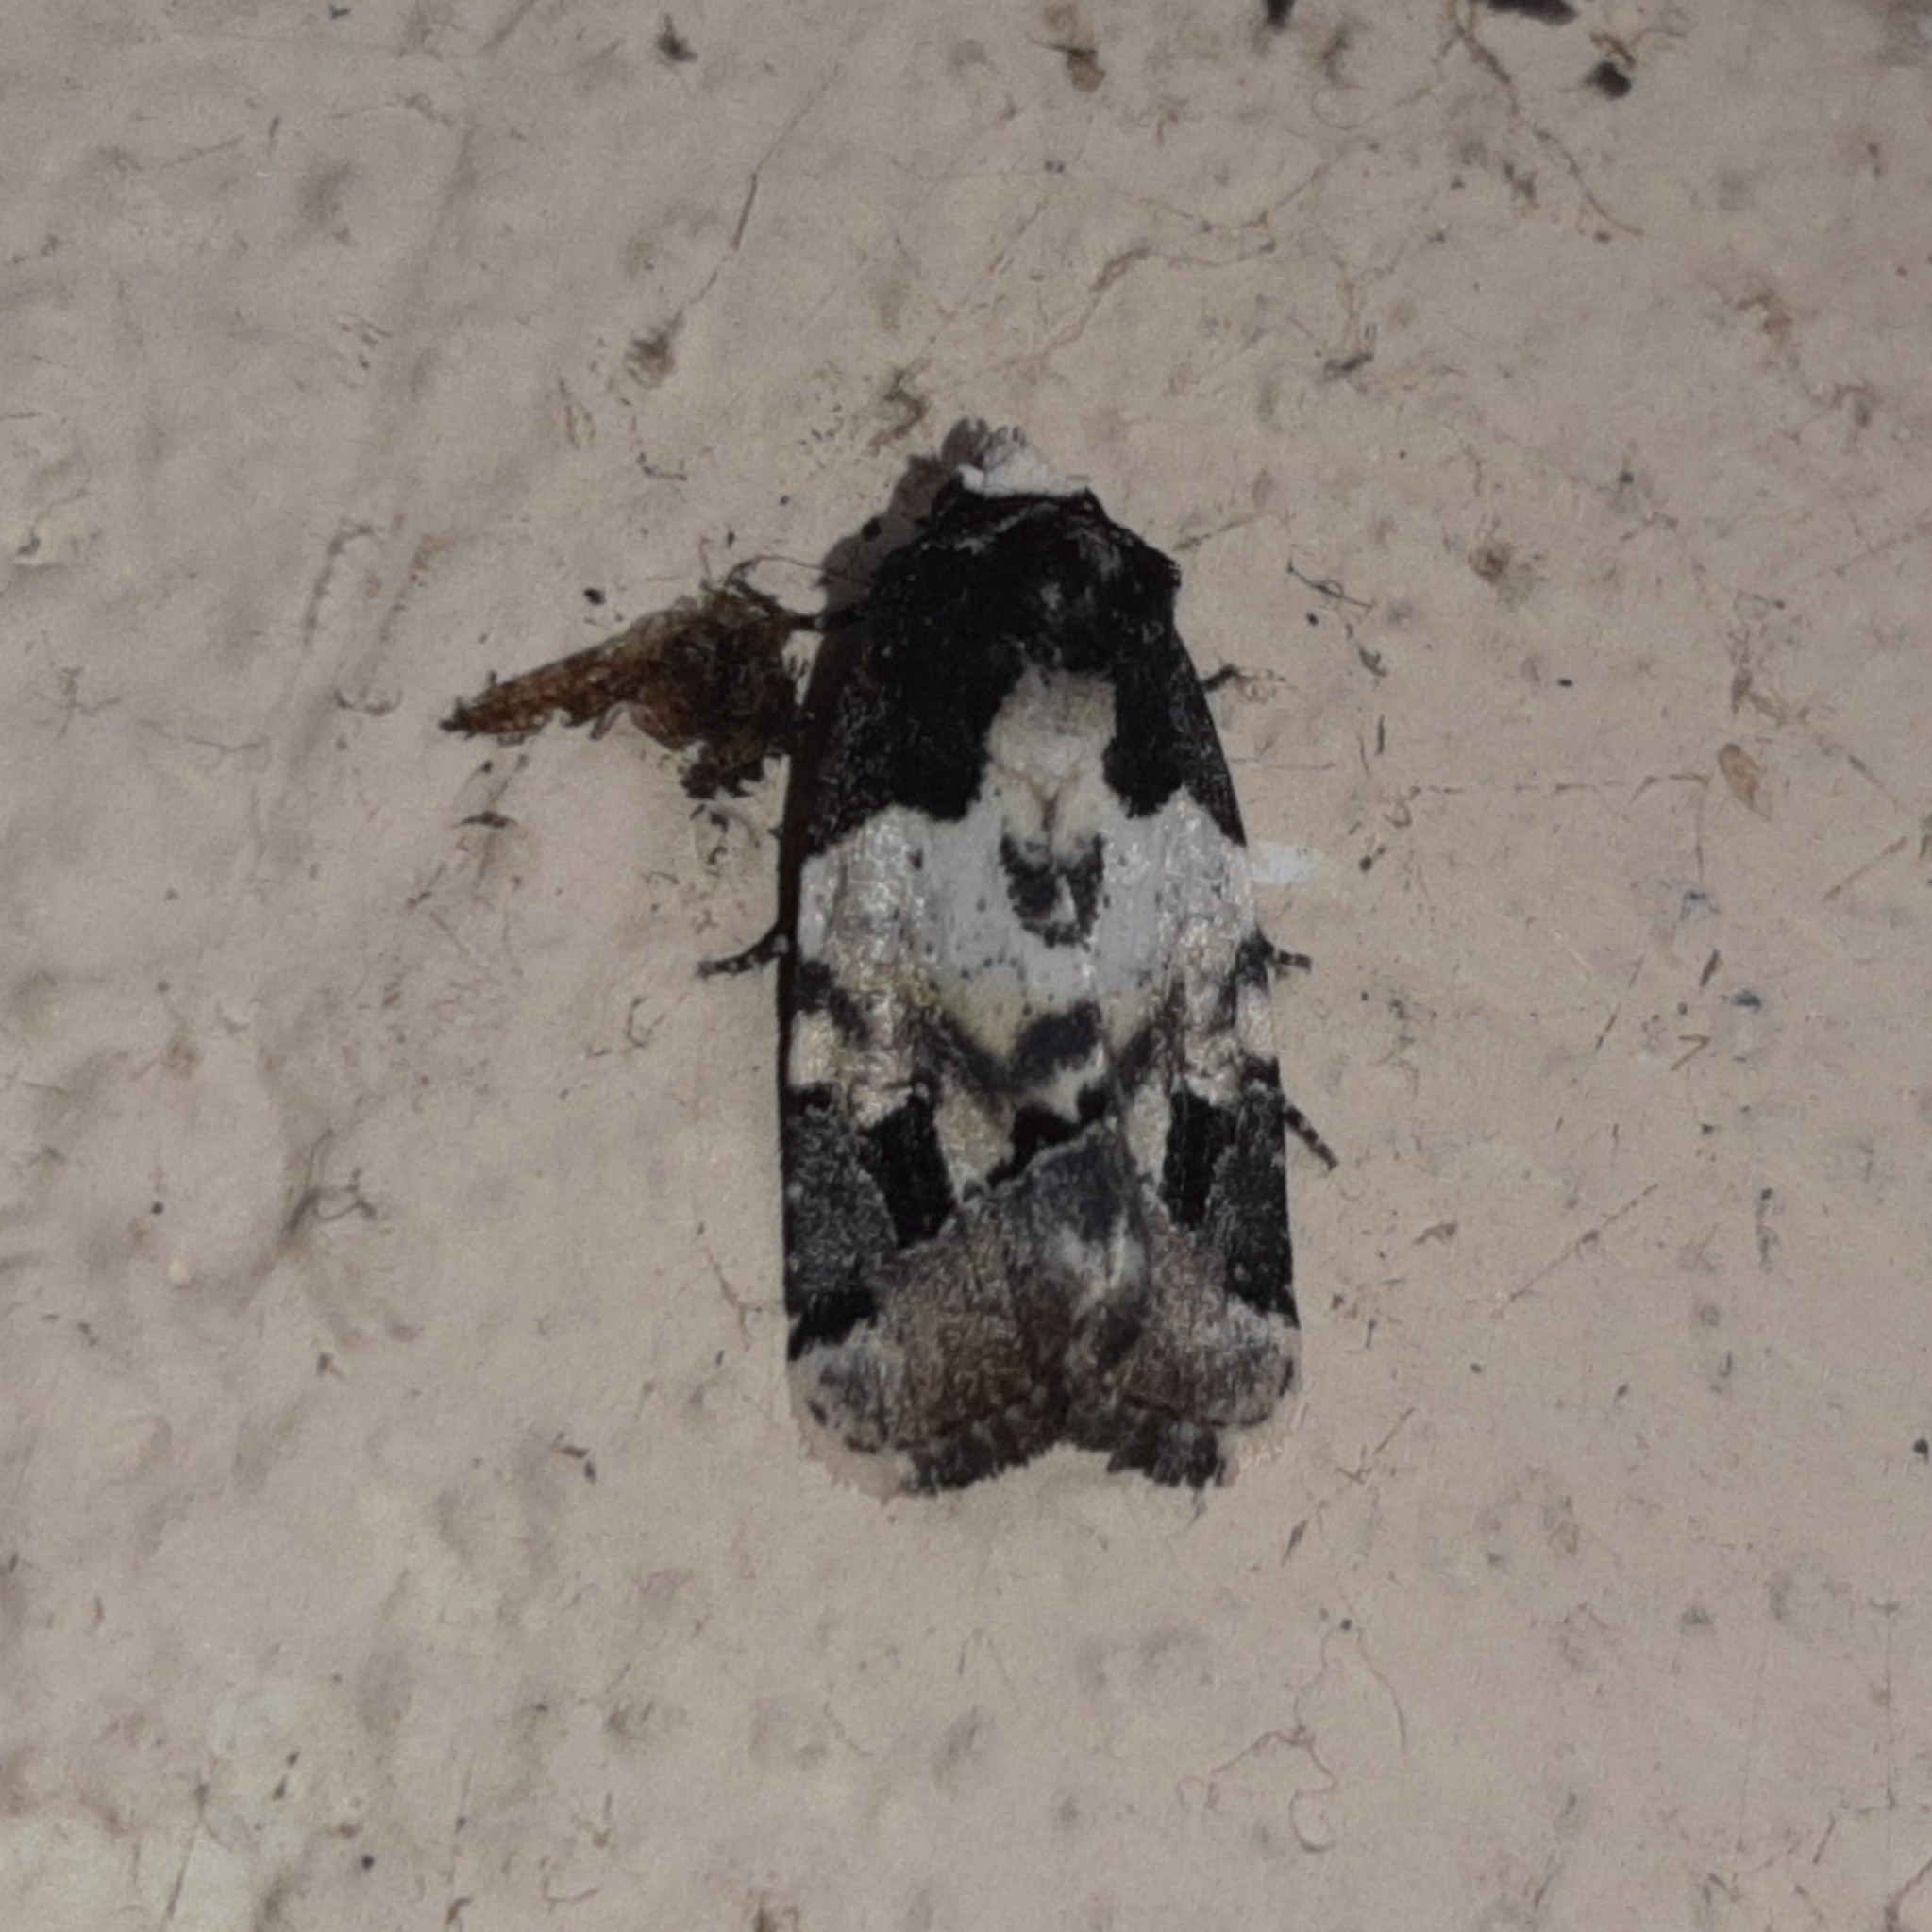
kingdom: Animalia
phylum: Arthropoda
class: Insecta
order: Lepidoptera
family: Noctuidae
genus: Bryolymnia
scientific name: Bryolymnia bicon
